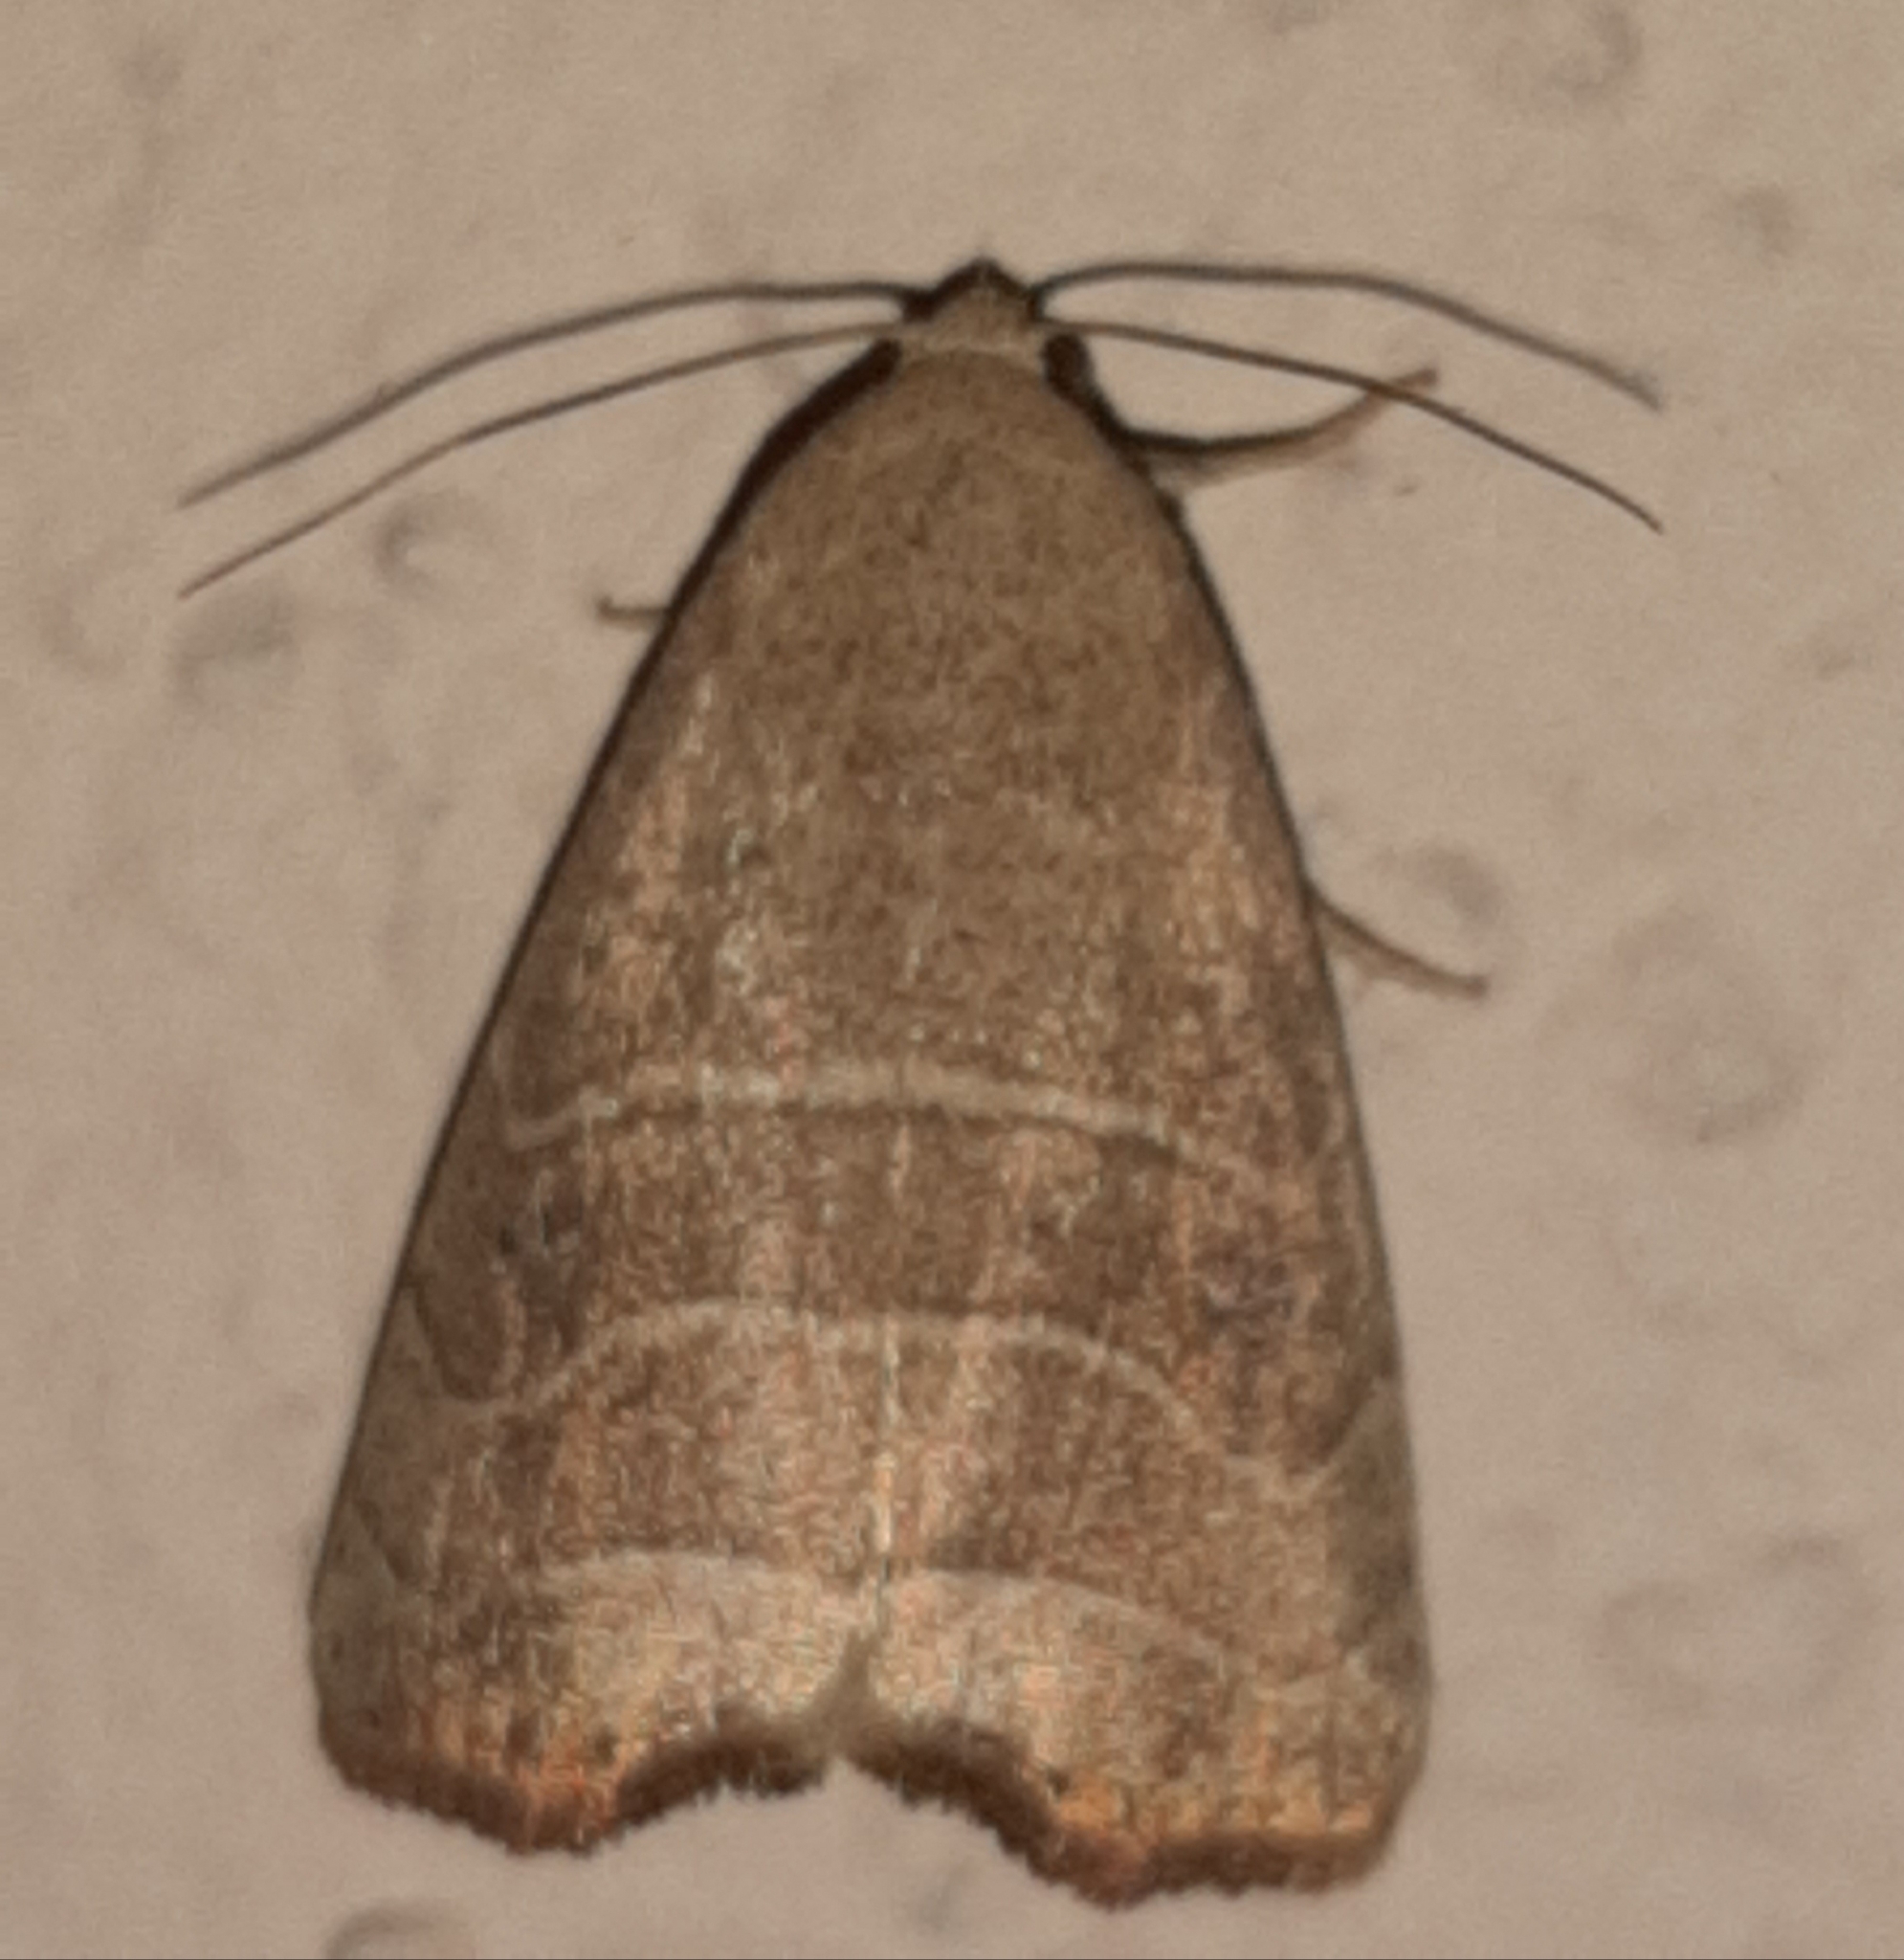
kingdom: Animalia
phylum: Arthropoda
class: Insecta
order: Lepidoptera
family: Noctuidae
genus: Bagisara
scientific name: Bagisara repanda
